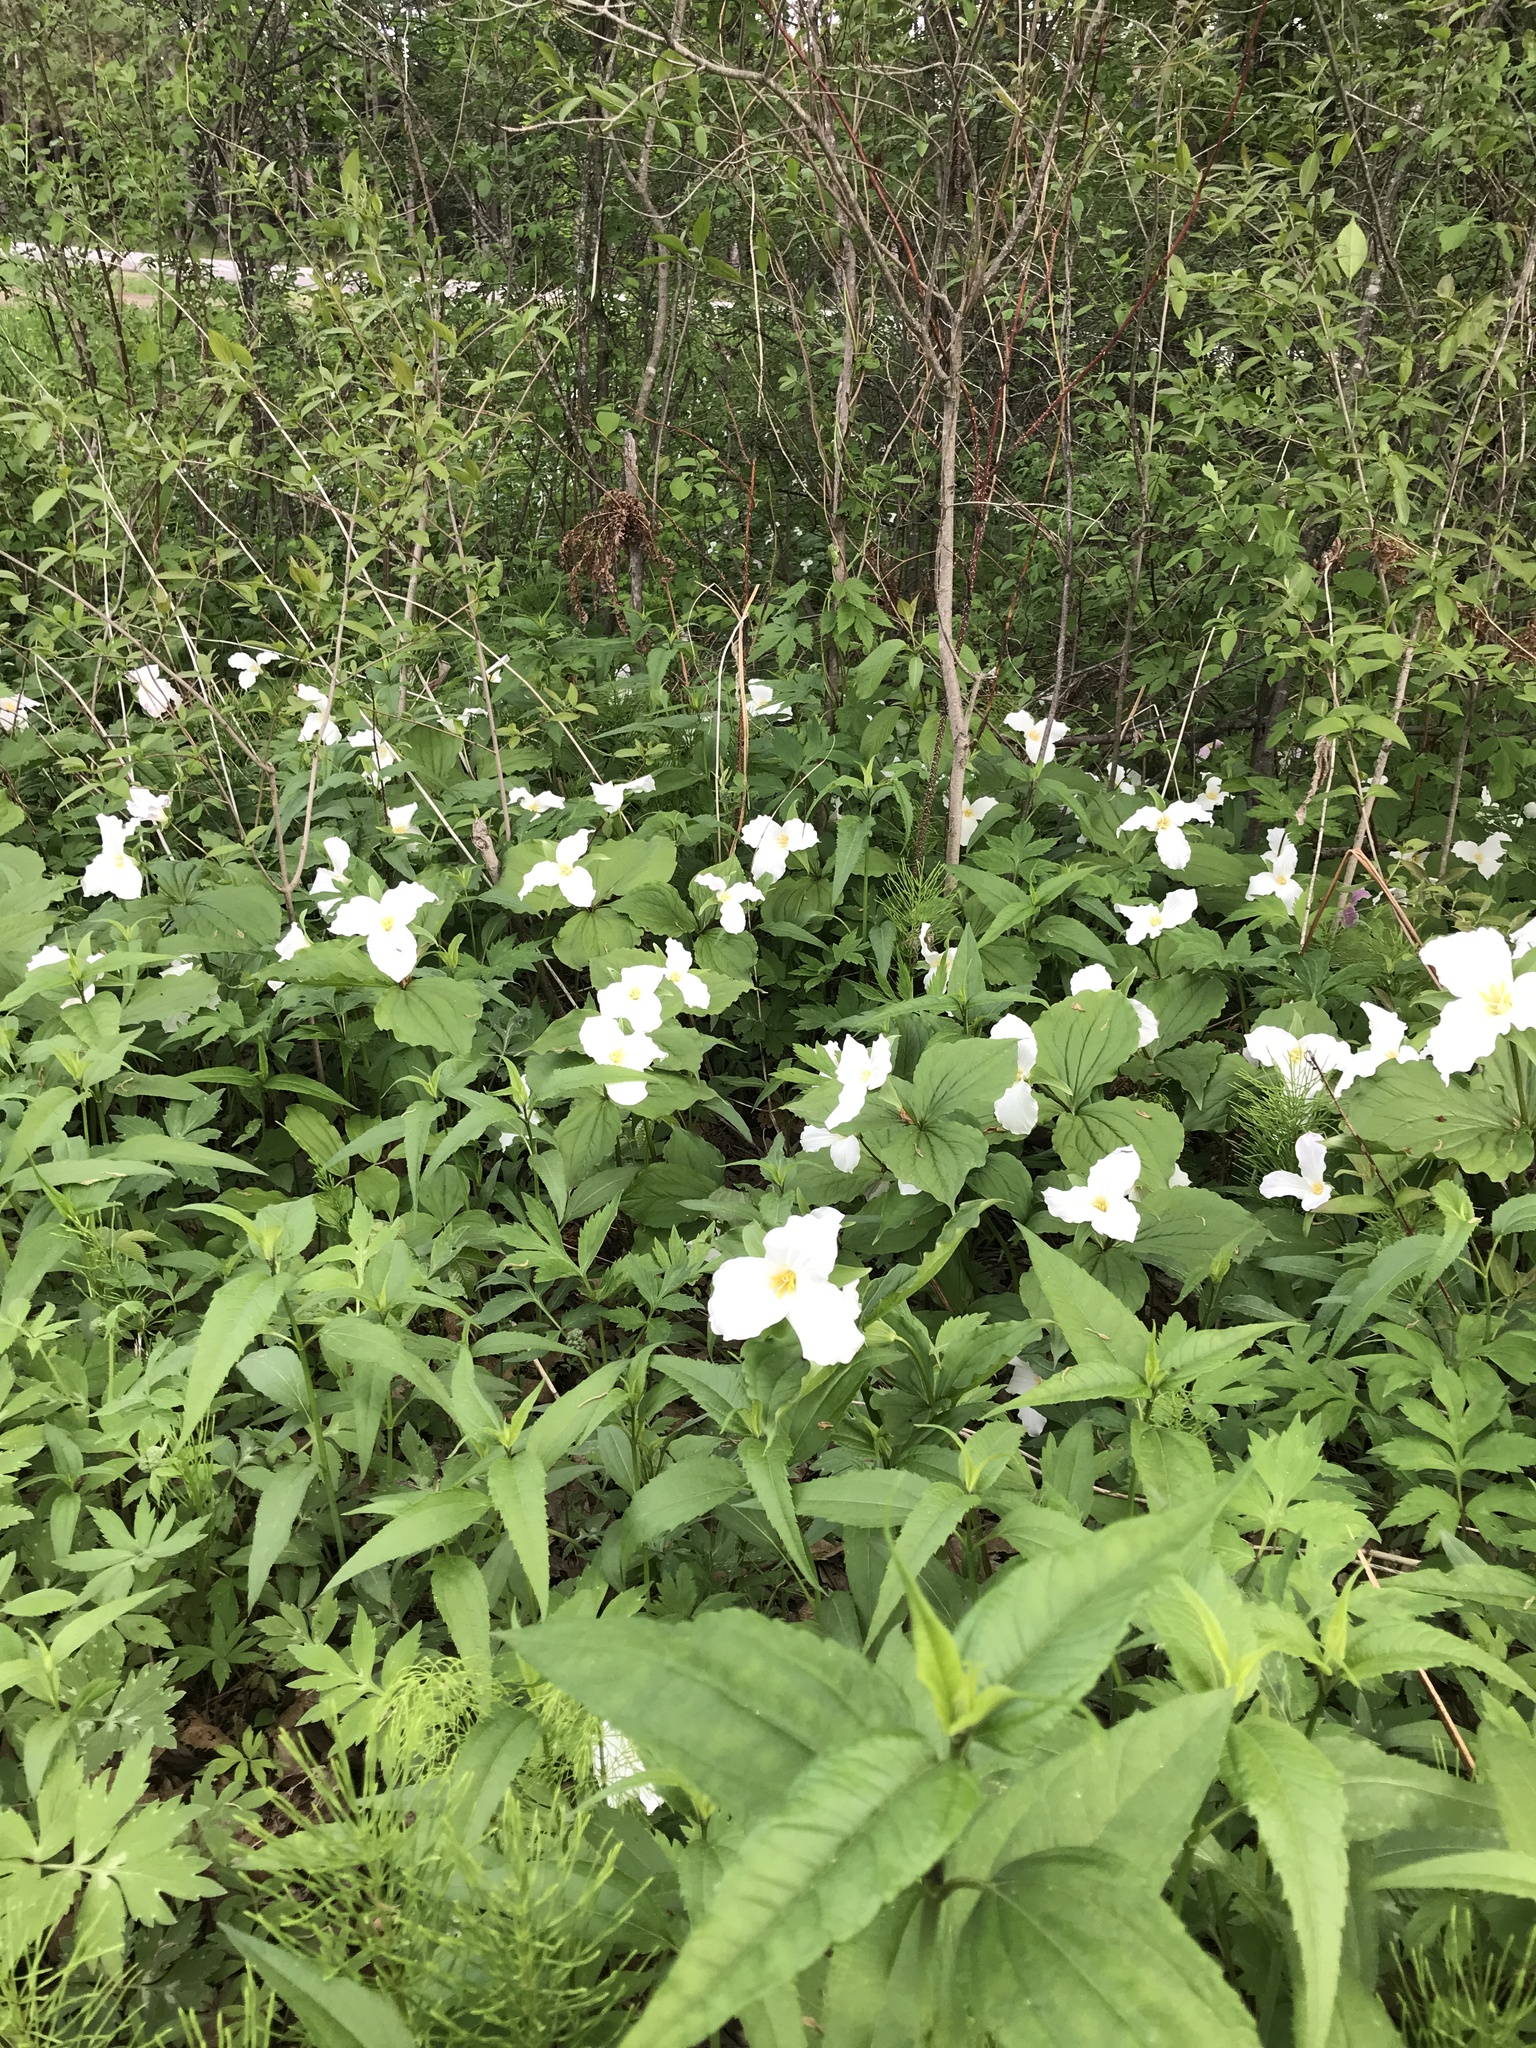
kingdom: Plantae
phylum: Tracheophyta
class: Liliopsida
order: Liliales
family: Melanthiaceae
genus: Trillium
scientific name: Trillium grandiflorum
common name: Great white trillium
